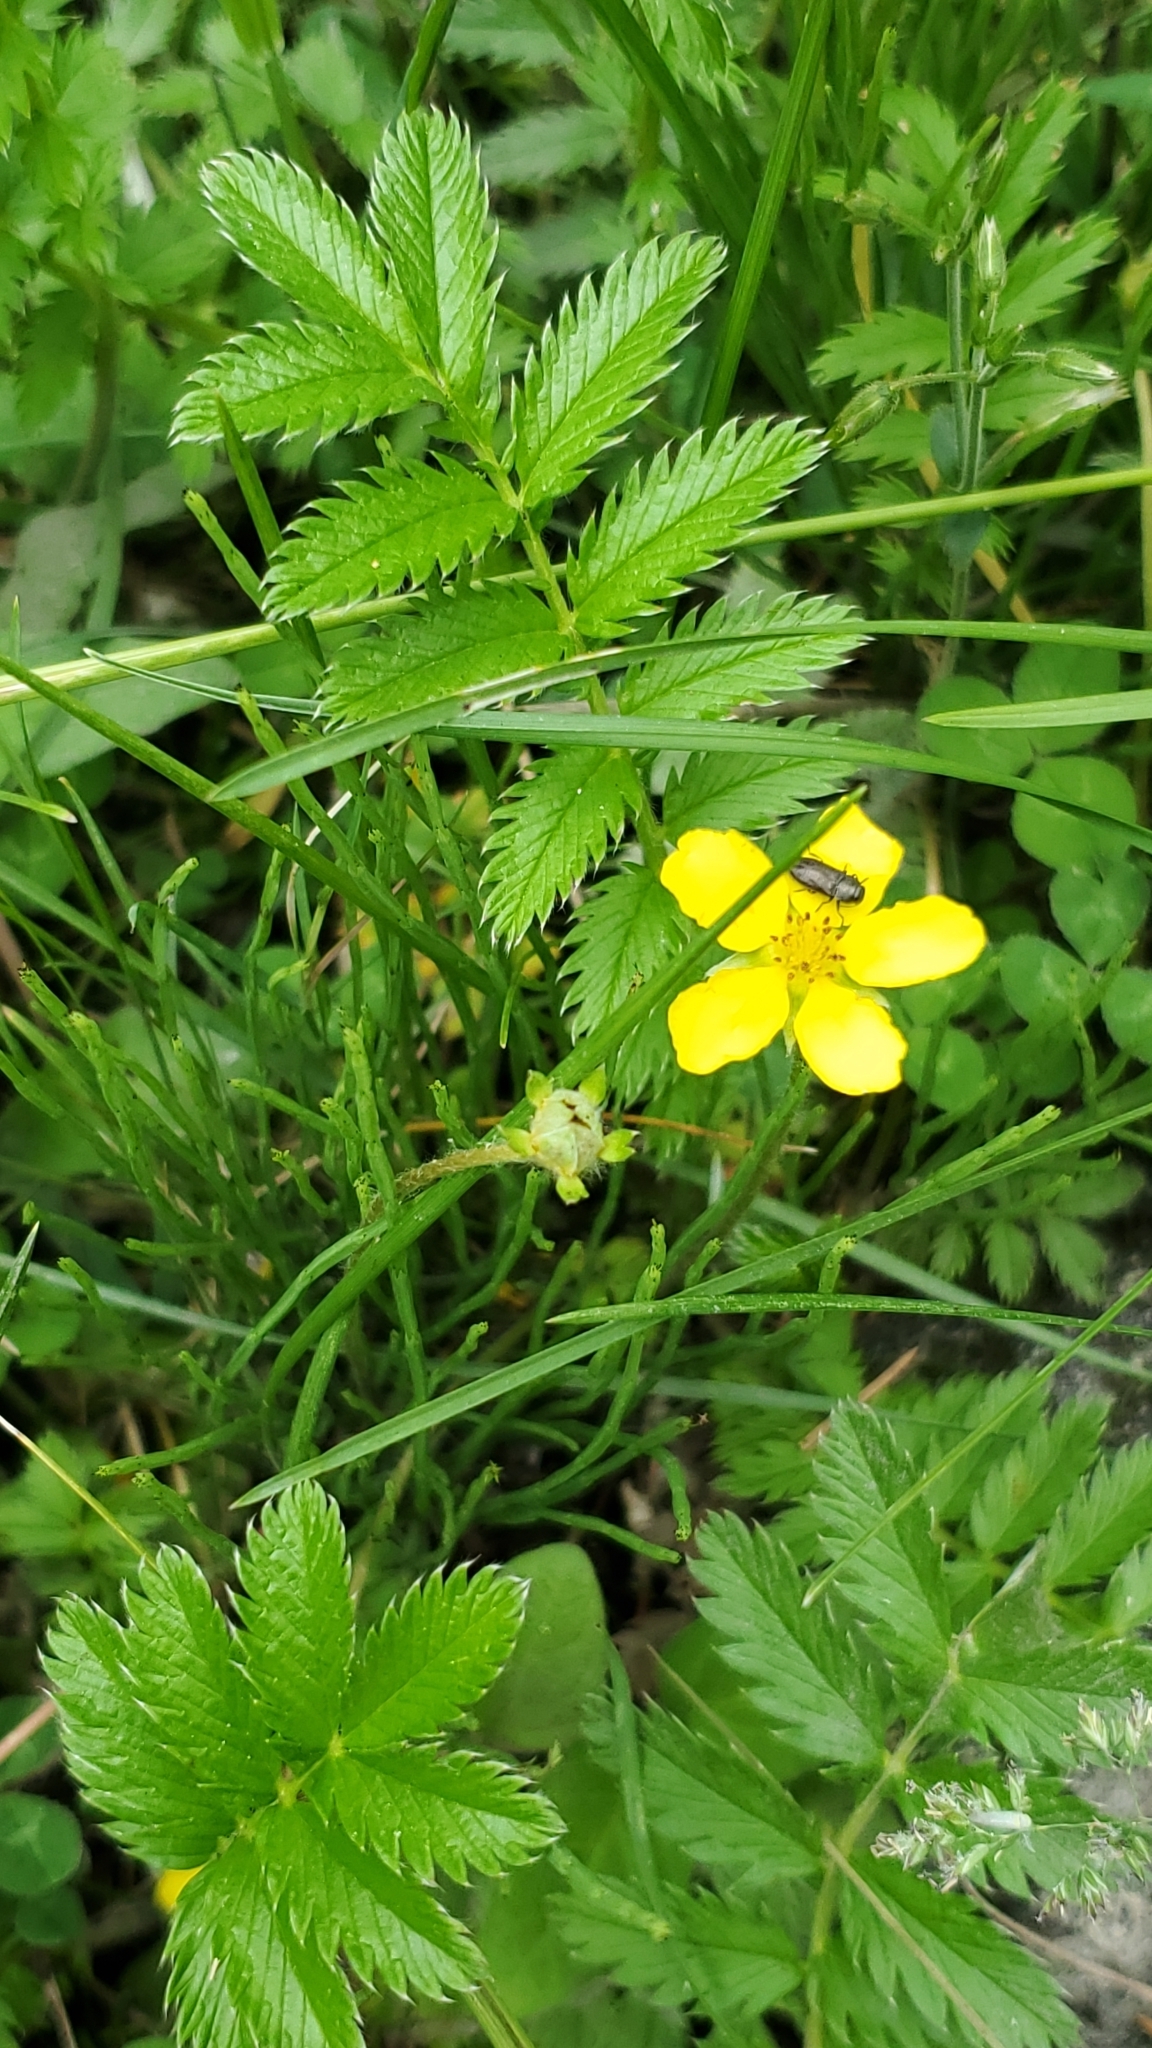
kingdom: Plantae
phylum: Tracheophyta
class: Magnoliopsida
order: Rosales
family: Rosaceae
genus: Argentina
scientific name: Argentina anserina
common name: Common silverweed
